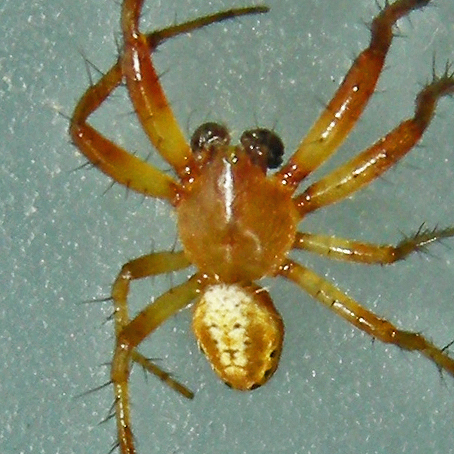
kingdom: Animalia
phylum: Arthropoda
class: Arachnida
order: Araneae
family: Araneidae
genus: Araniella
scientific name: Araniella displicata
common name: Sixspotted orb weaver
